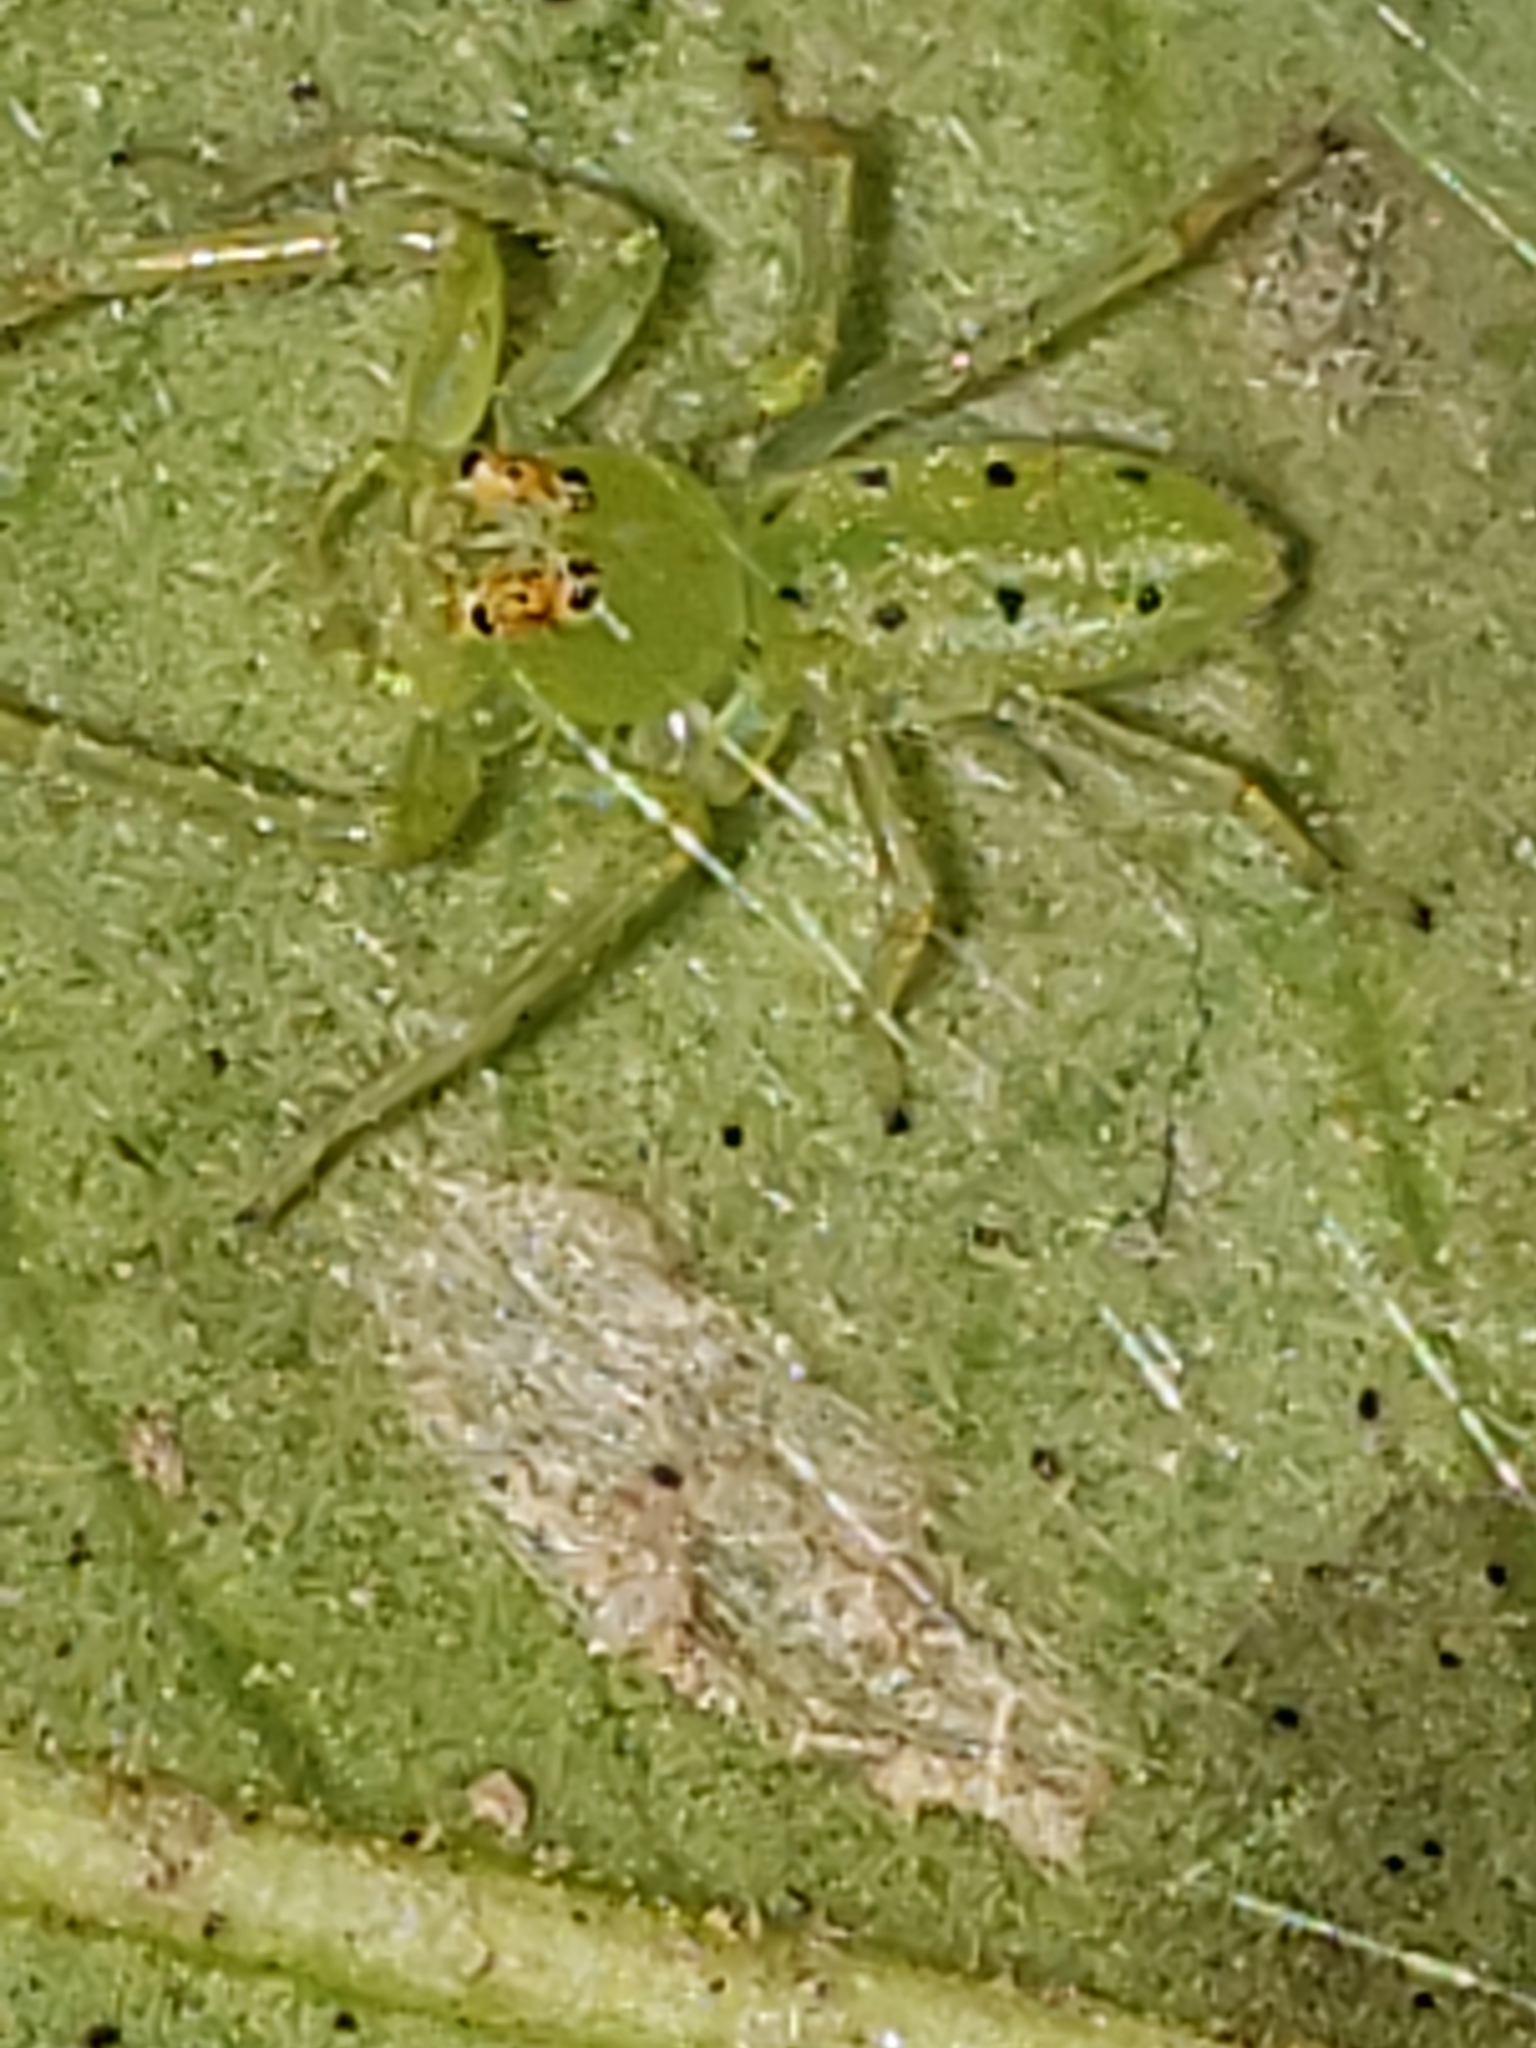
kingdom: Animalia
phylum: Arthropoda
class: Arachnida
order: Araneae
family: Salticidae
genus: Lyssomanes
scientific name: Lyssomanes viridis
